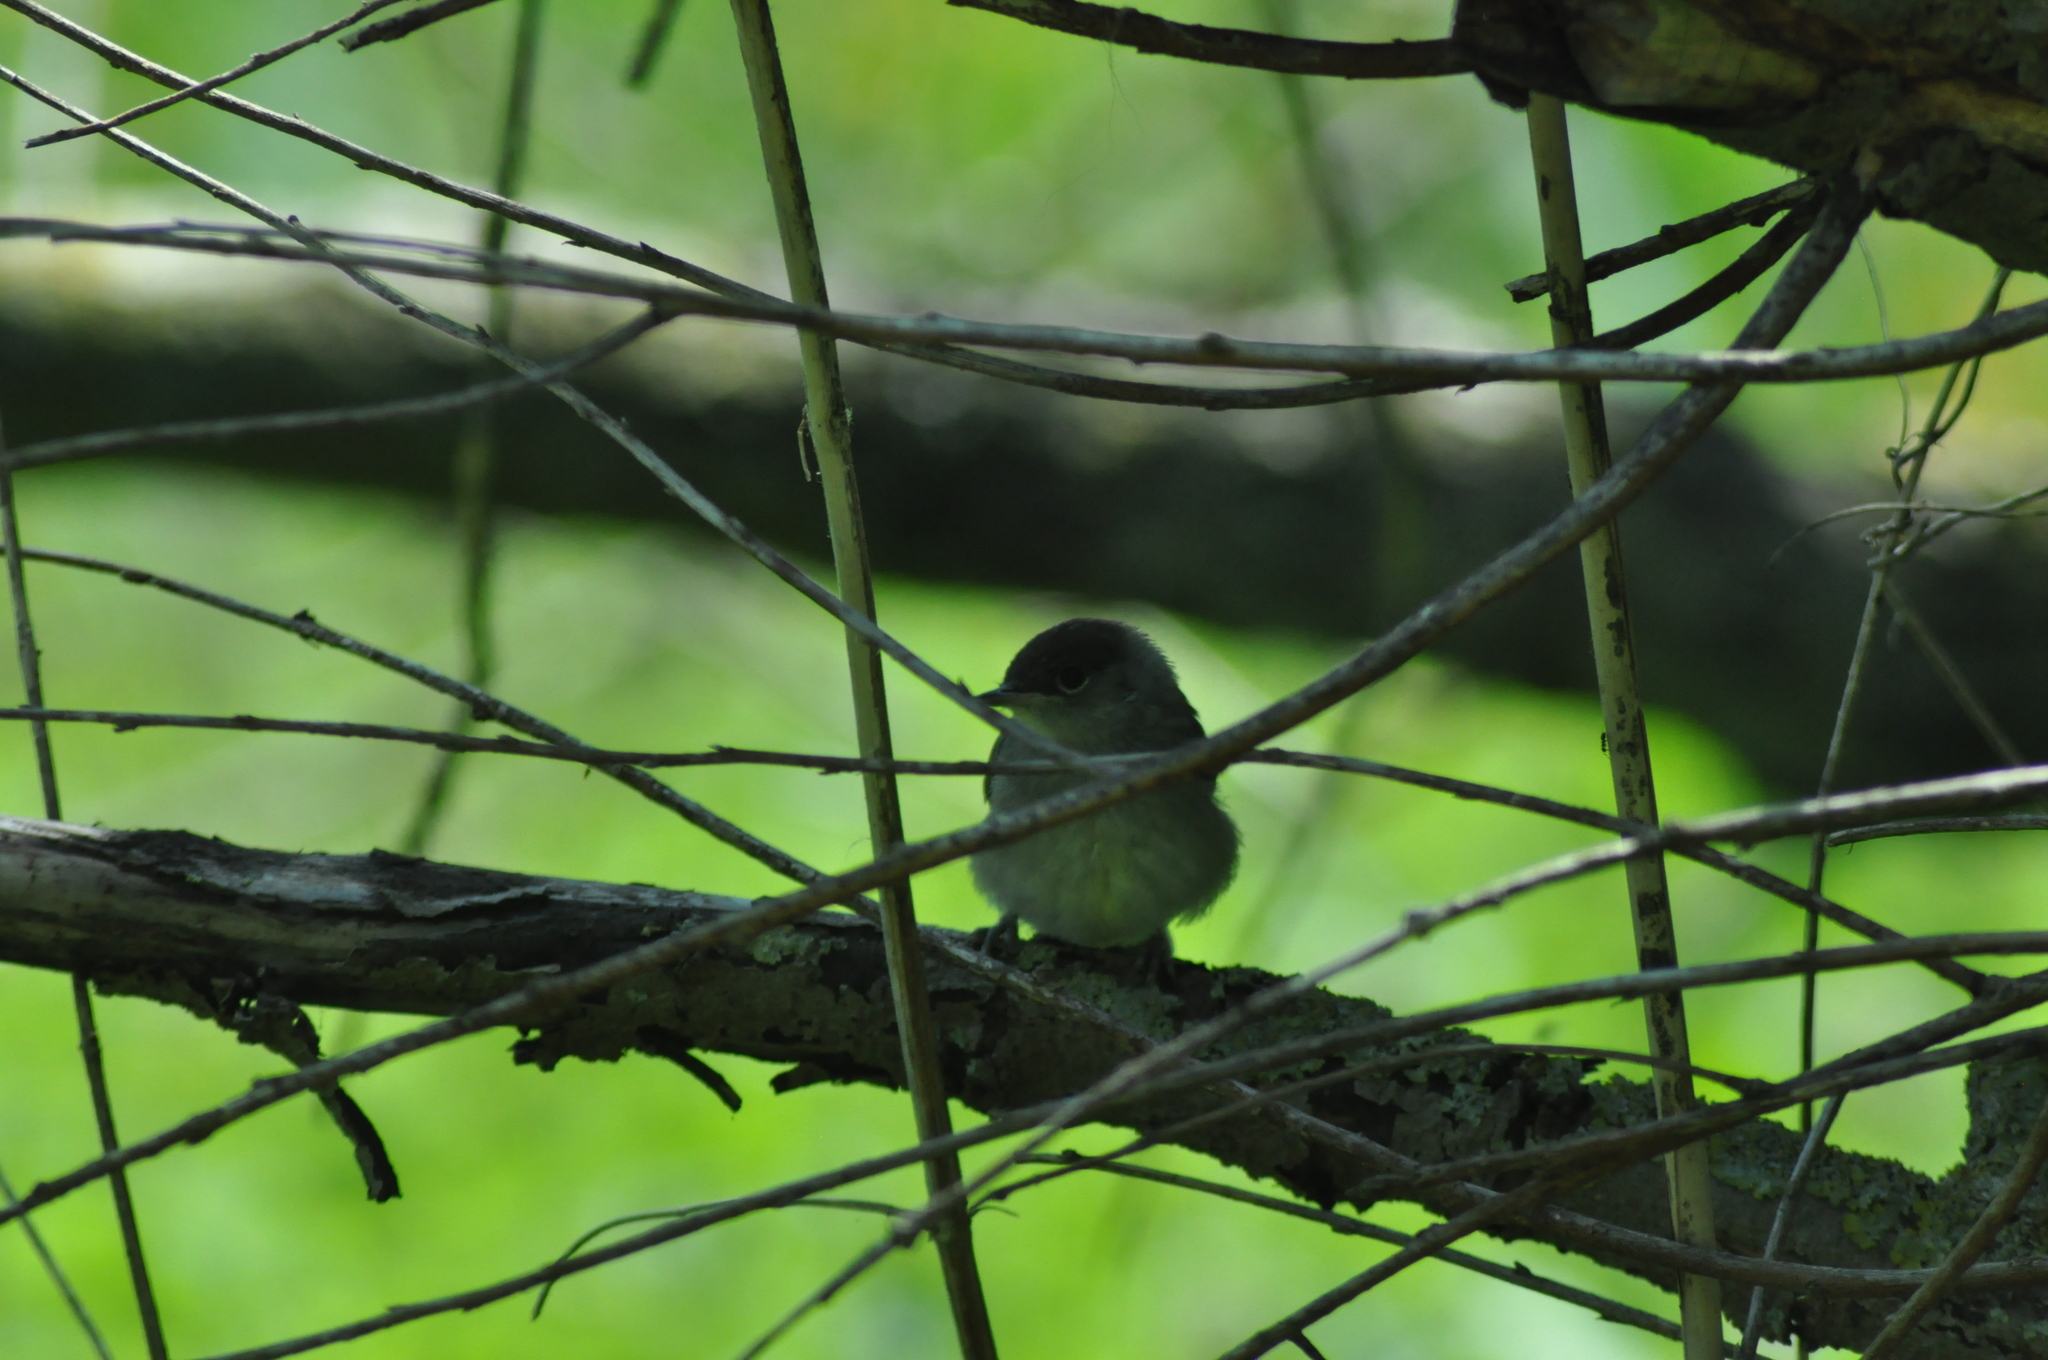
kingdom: Animalia
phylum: Chordata
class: Aves
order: Passeriformes
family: Sylviidae
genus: Sylvia
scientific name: Sylvia atricapilla
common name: Eurasian blackcap
